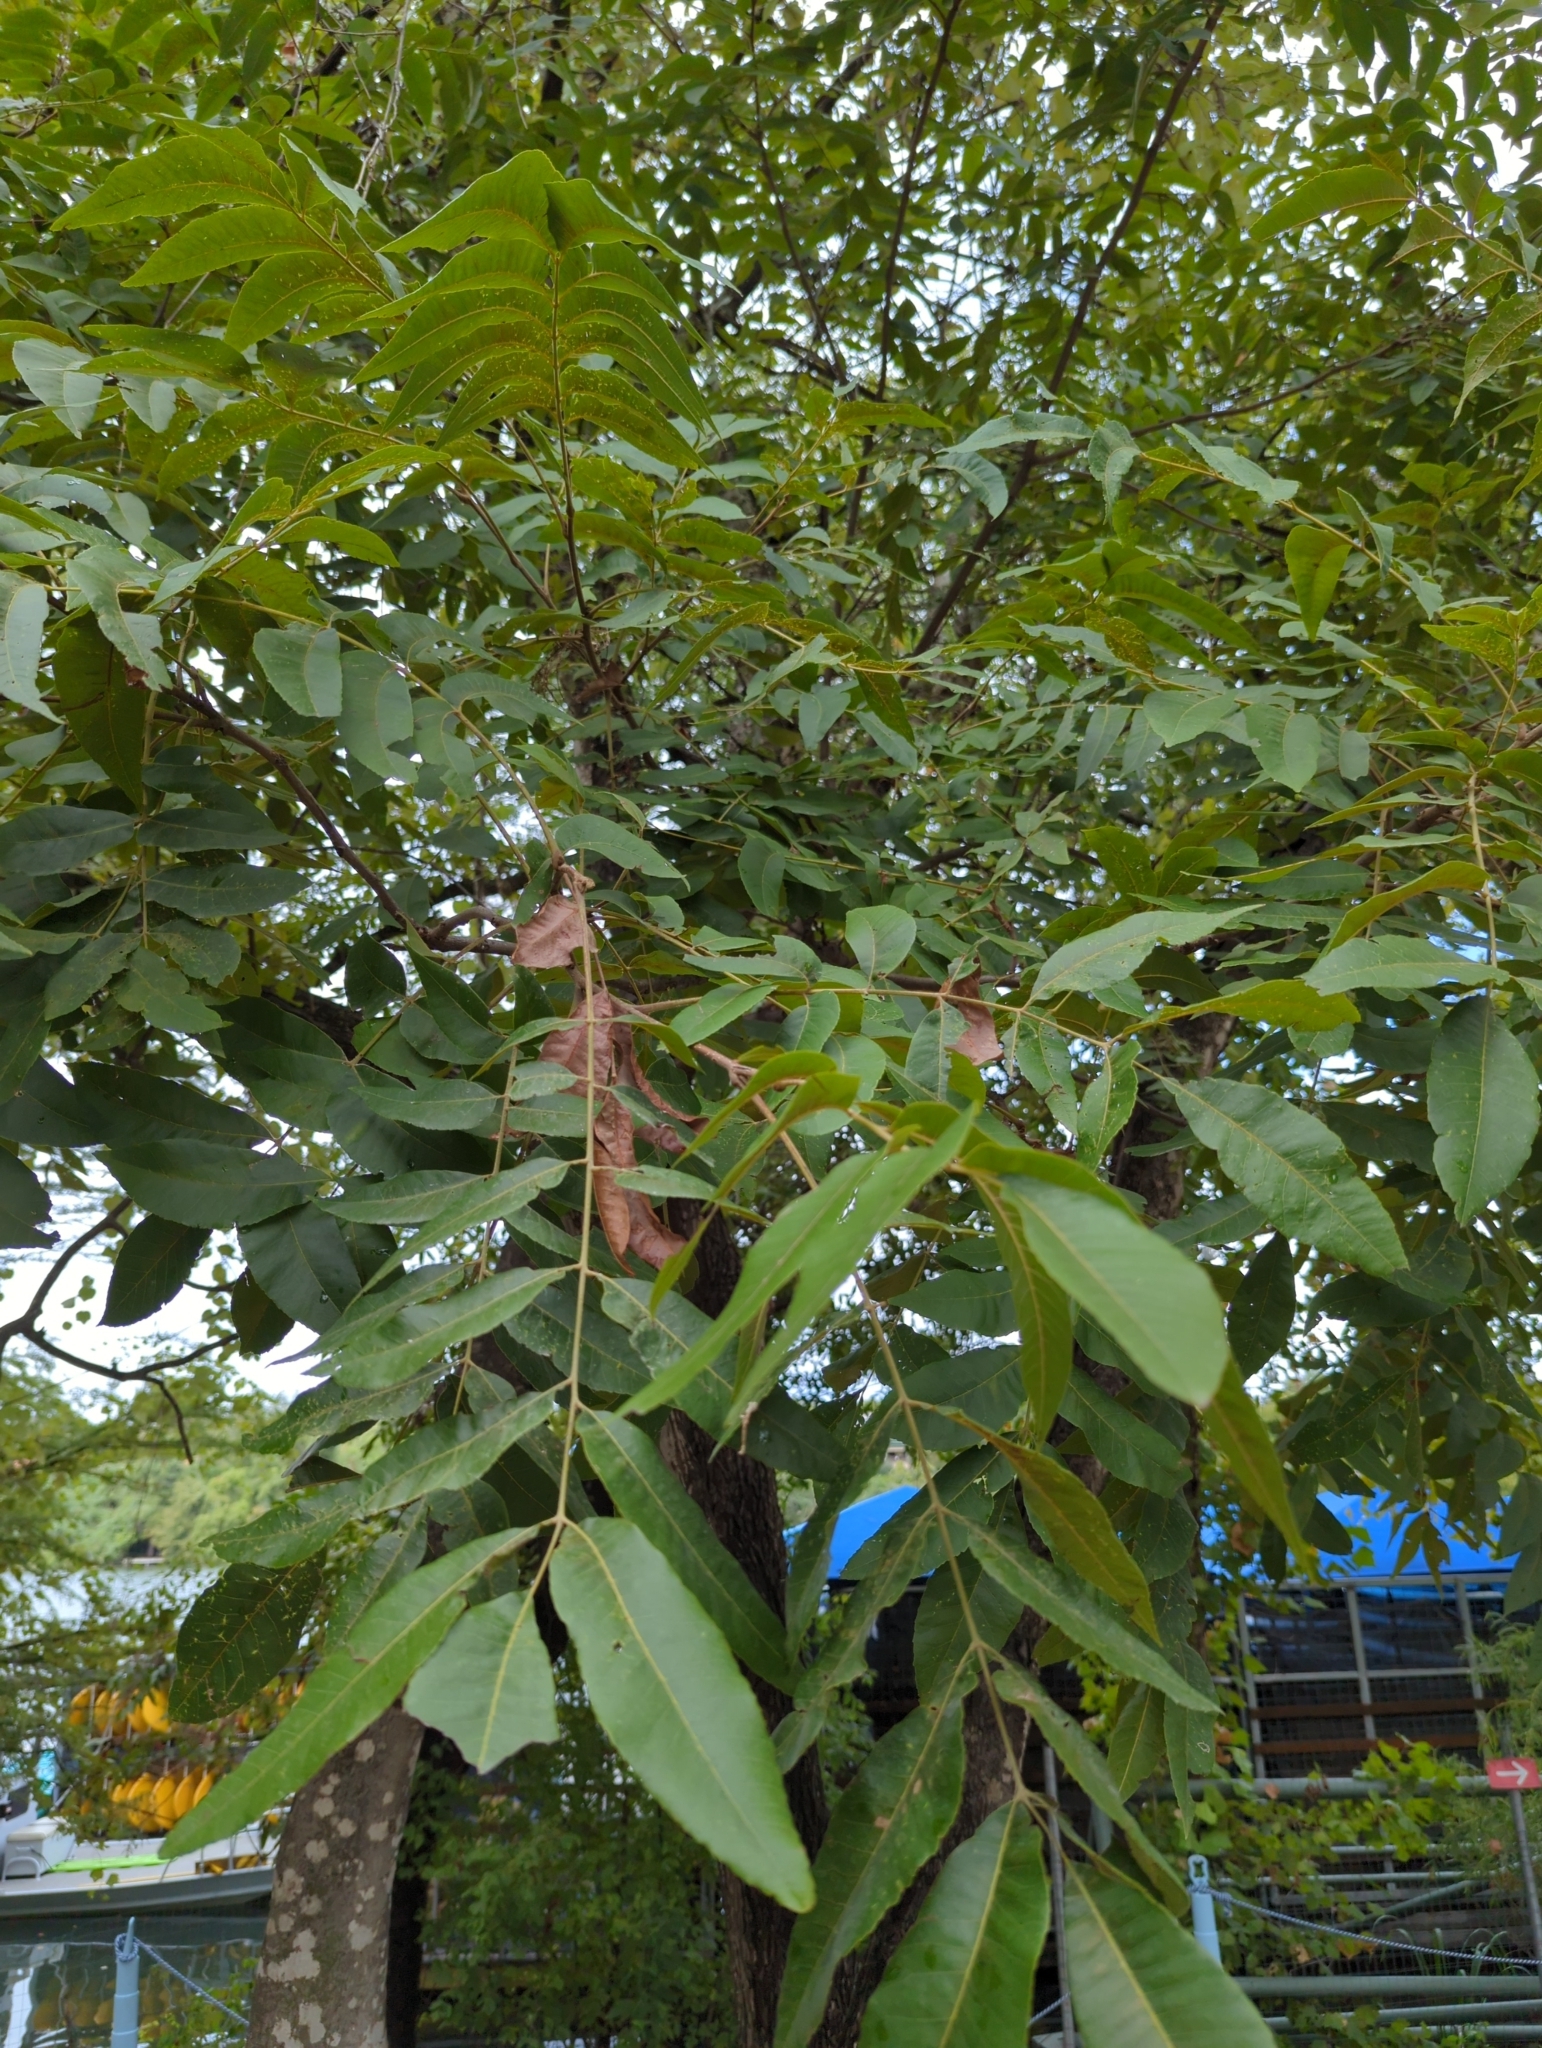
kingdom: Plantae
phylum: Tracheophyta
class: Magnoliopsida
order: Fagales
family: Juglandaceae
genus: Carya
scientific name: Carya illinoinensis
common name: Pecan
